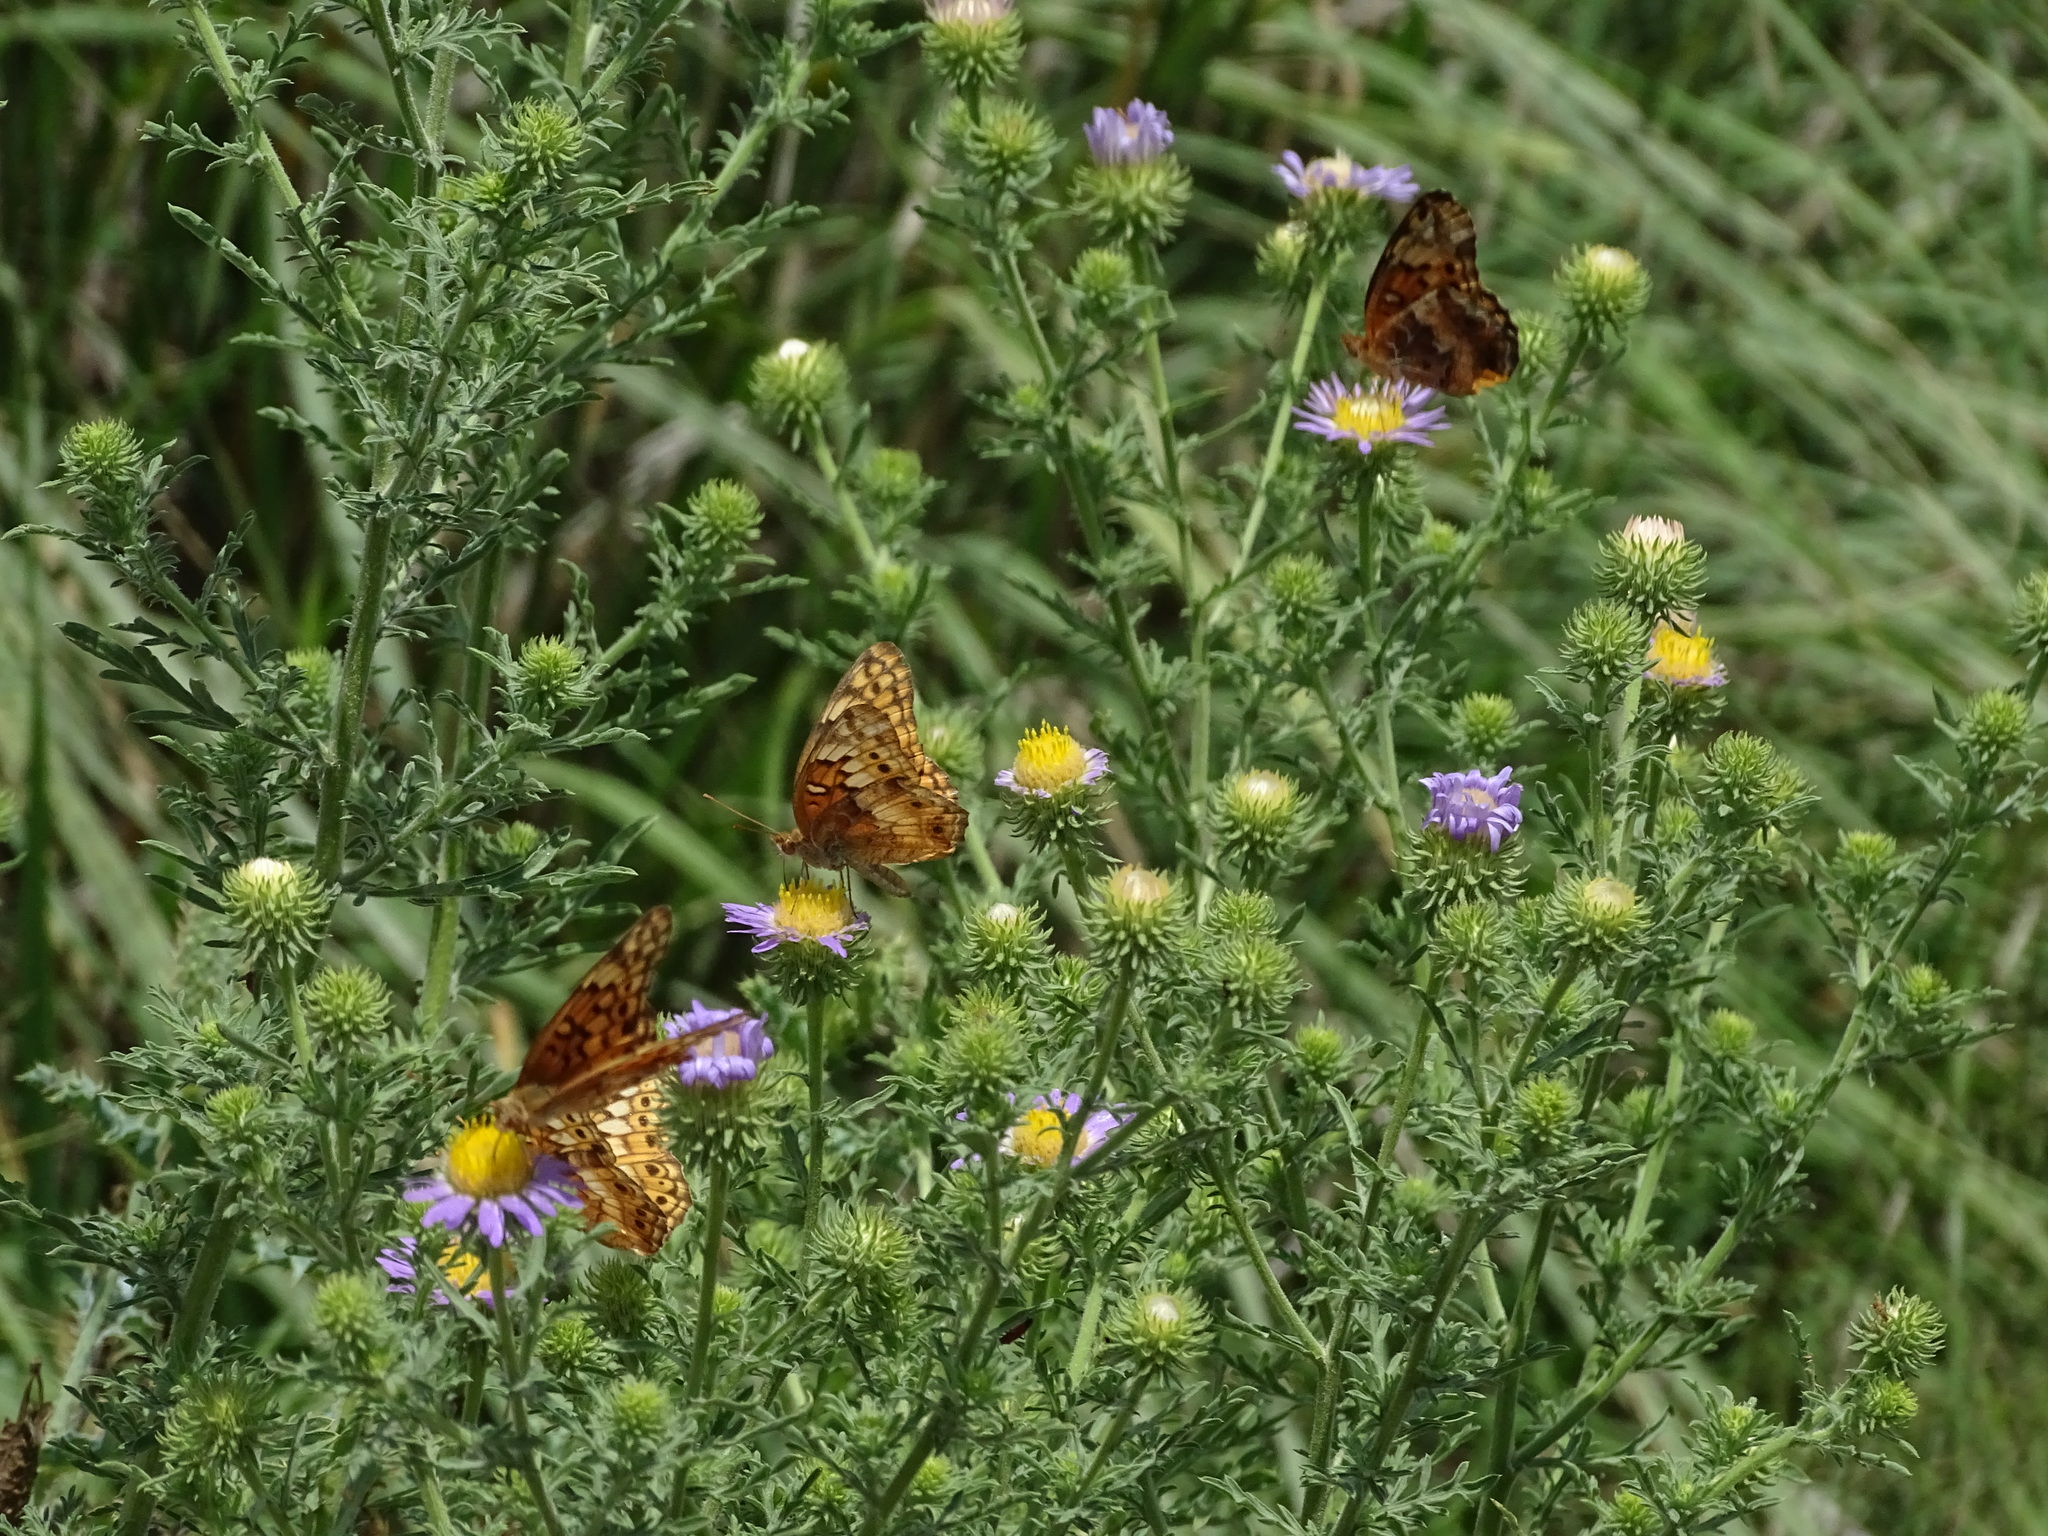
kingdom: Animalia
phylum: Arthropoda
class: Insecta
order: Lepidoptera
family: Nymphalidae
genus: Euptoieta
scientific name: Euptoieta claudia
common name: Variegated fritillary
